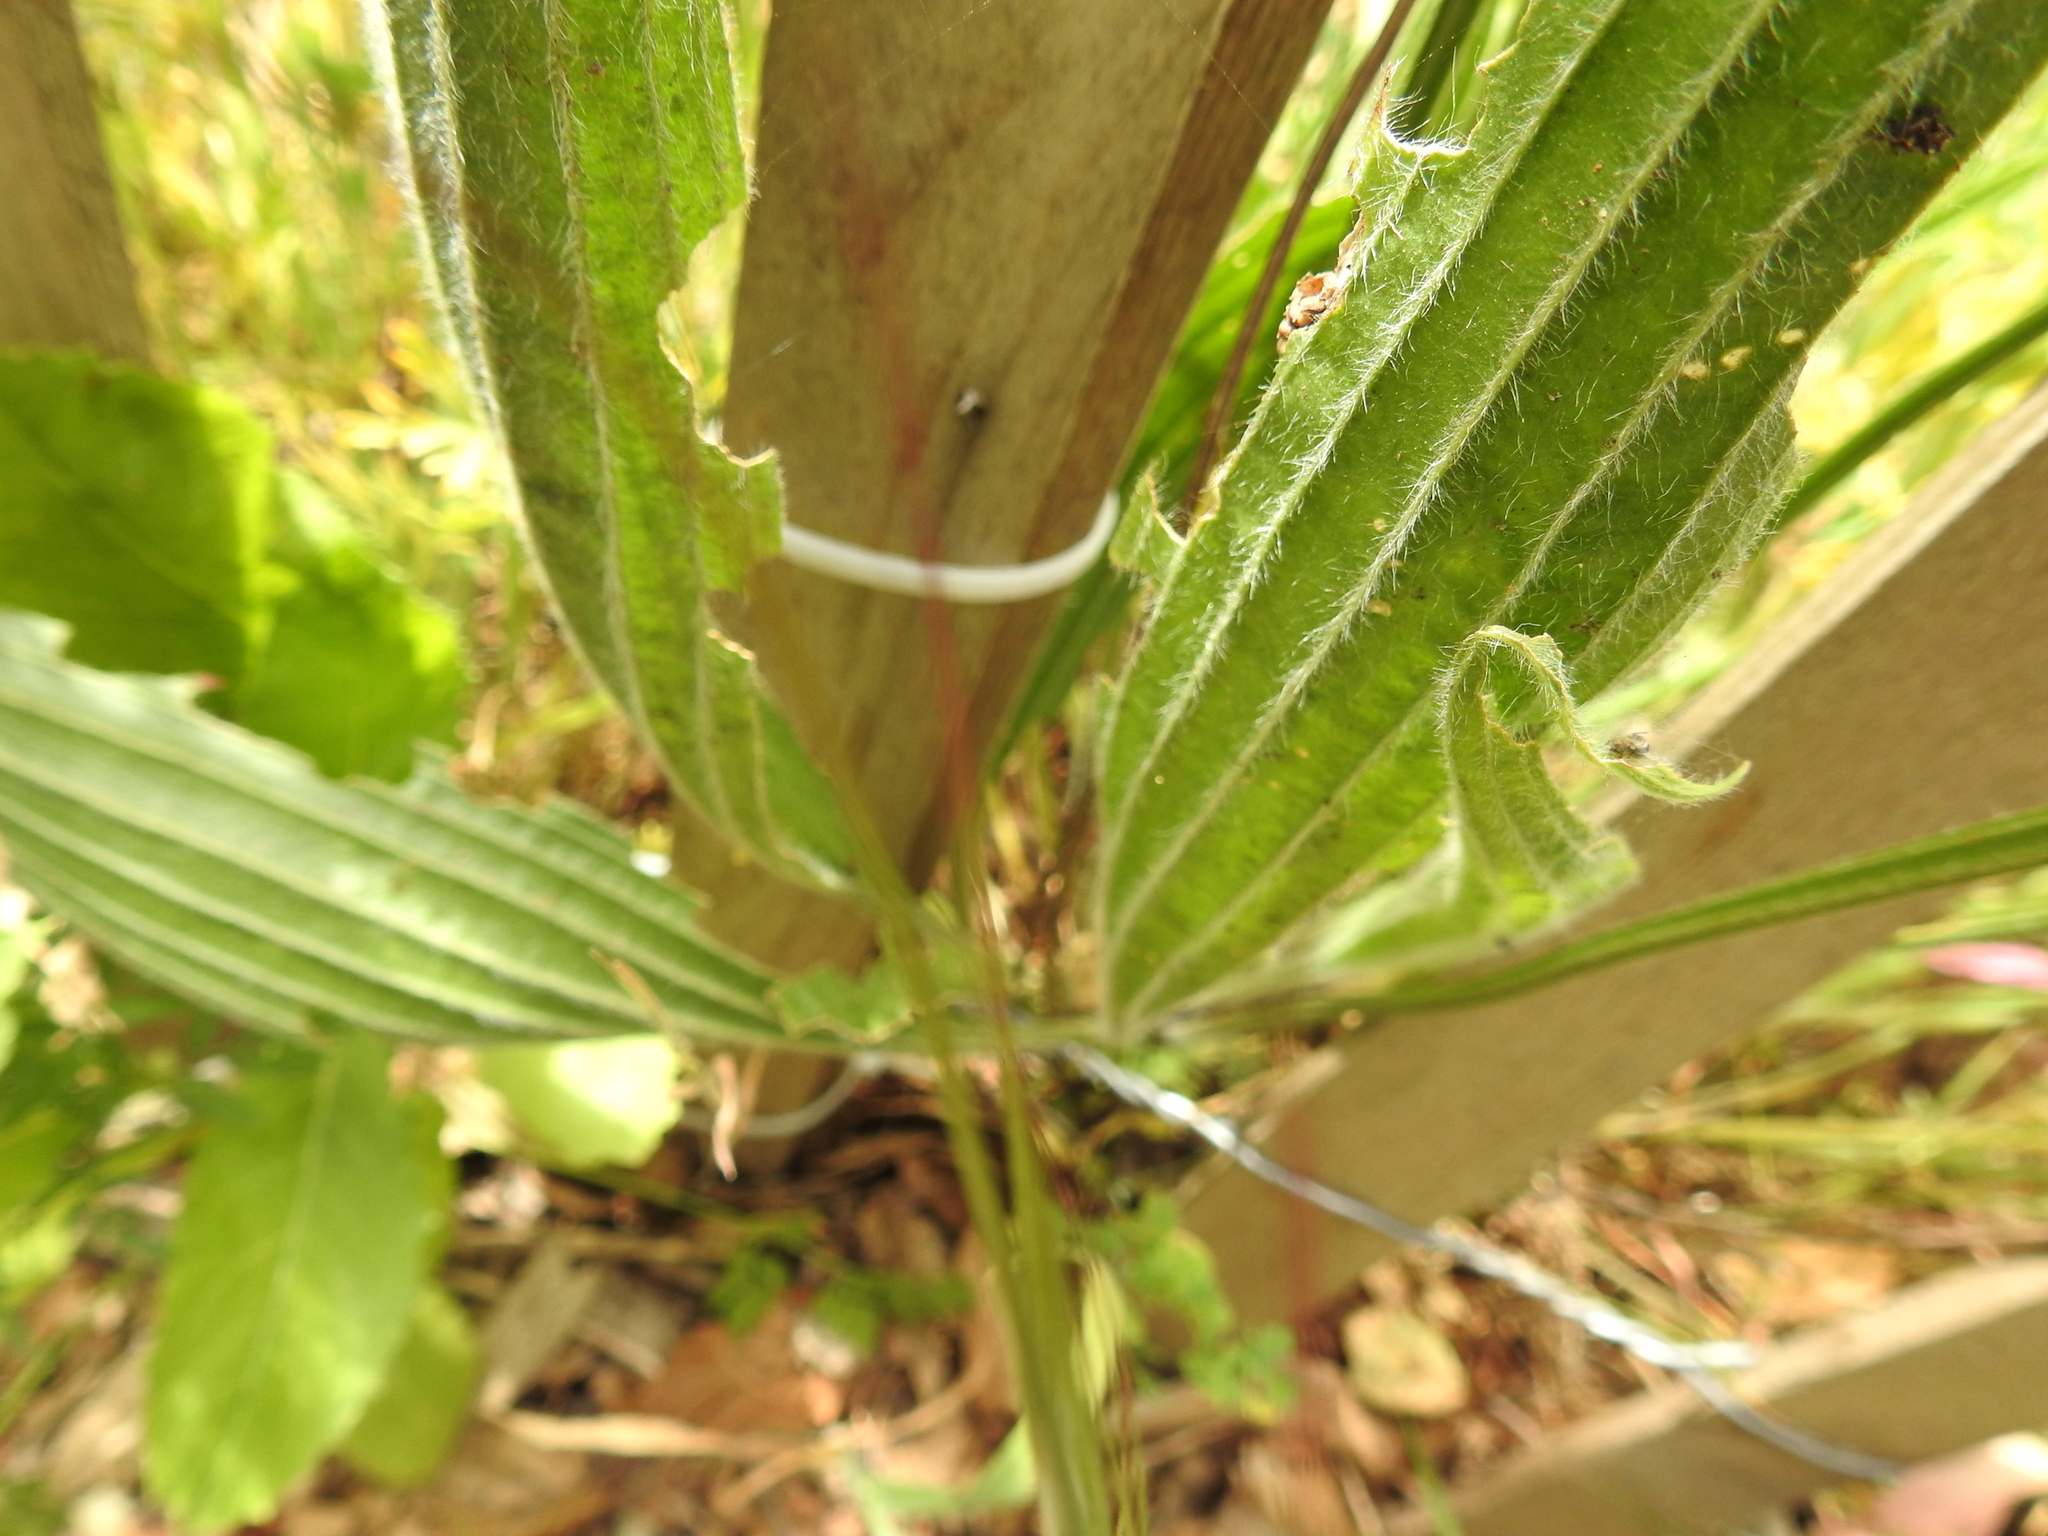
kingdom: Plantae
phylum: Tracheophyta
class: Magnoliopsida
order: Lamiales
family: Plantaginaceae
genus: Plantago
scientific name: Plantago lanceolata
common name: Ribwort plantain
